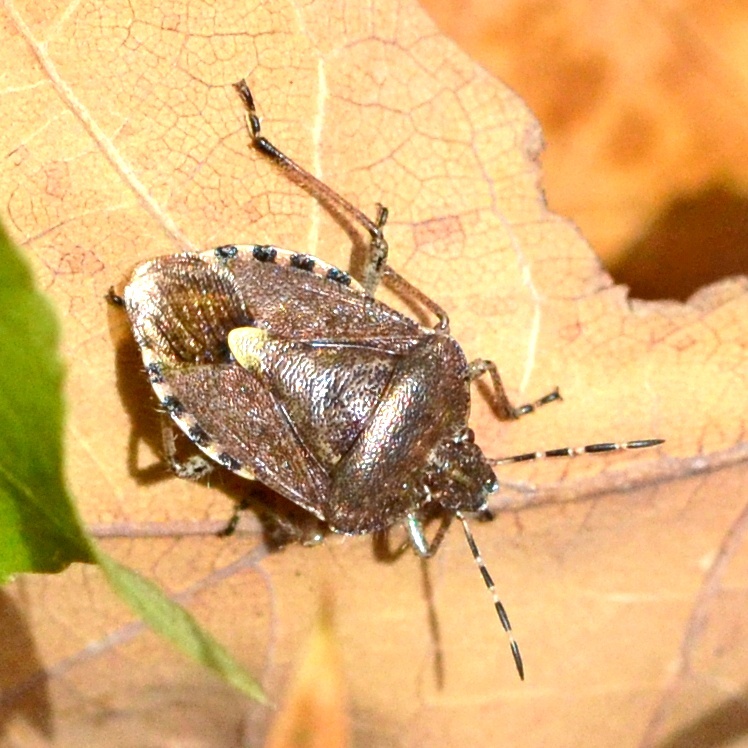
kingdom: Animalia
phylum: Arthropoda
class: Insecta
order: Hemiptera
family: Pentatomidae
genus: Dolycoris
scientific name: Dolycoris baccarum
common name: Sloe bug
